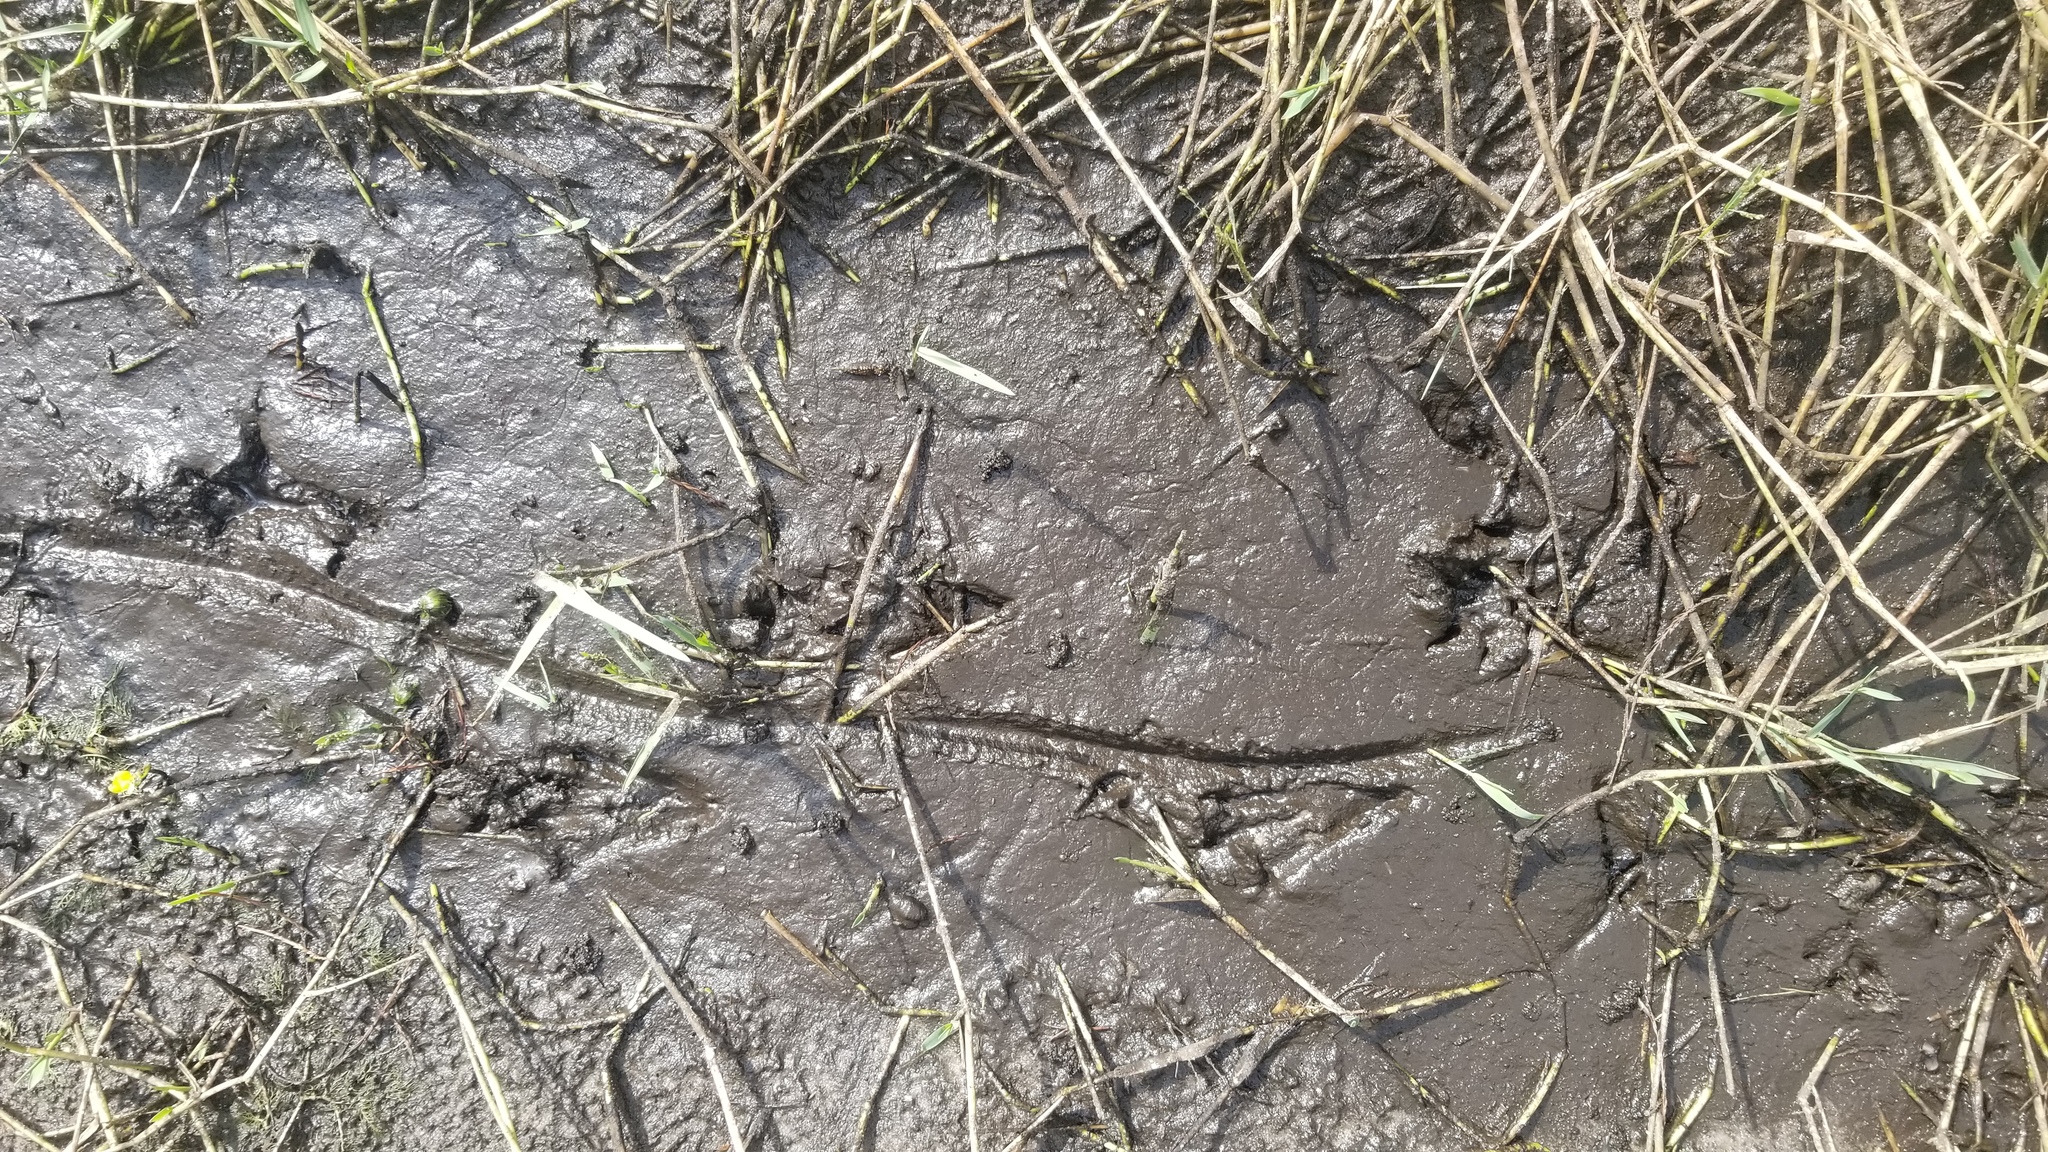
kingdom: Animalia
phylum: Chordata
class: Crocodylia
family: Alligatoridae
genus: Alligator
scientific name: Alligator mississippiensis
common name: American alligator
